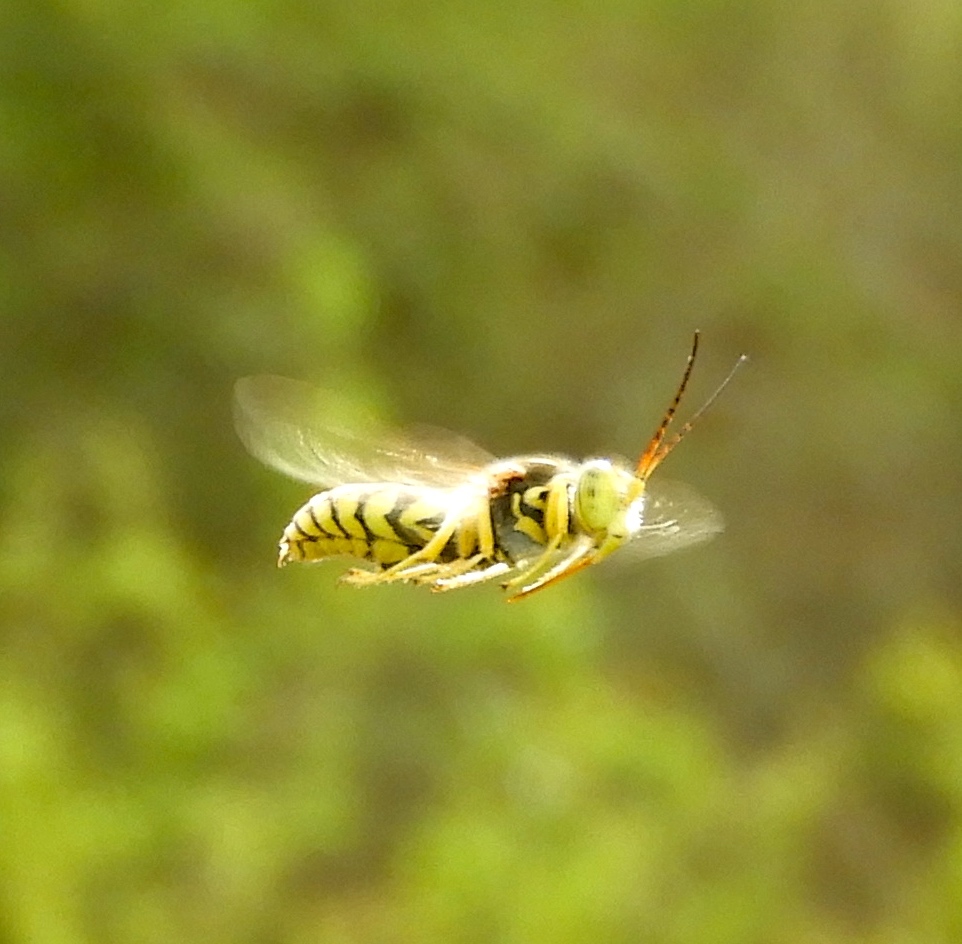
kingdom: Animalia
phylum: Arthropoda
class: Insecta
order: Hymenoptera
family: Crabronidae
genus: Steniolia
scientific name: Steniolia
